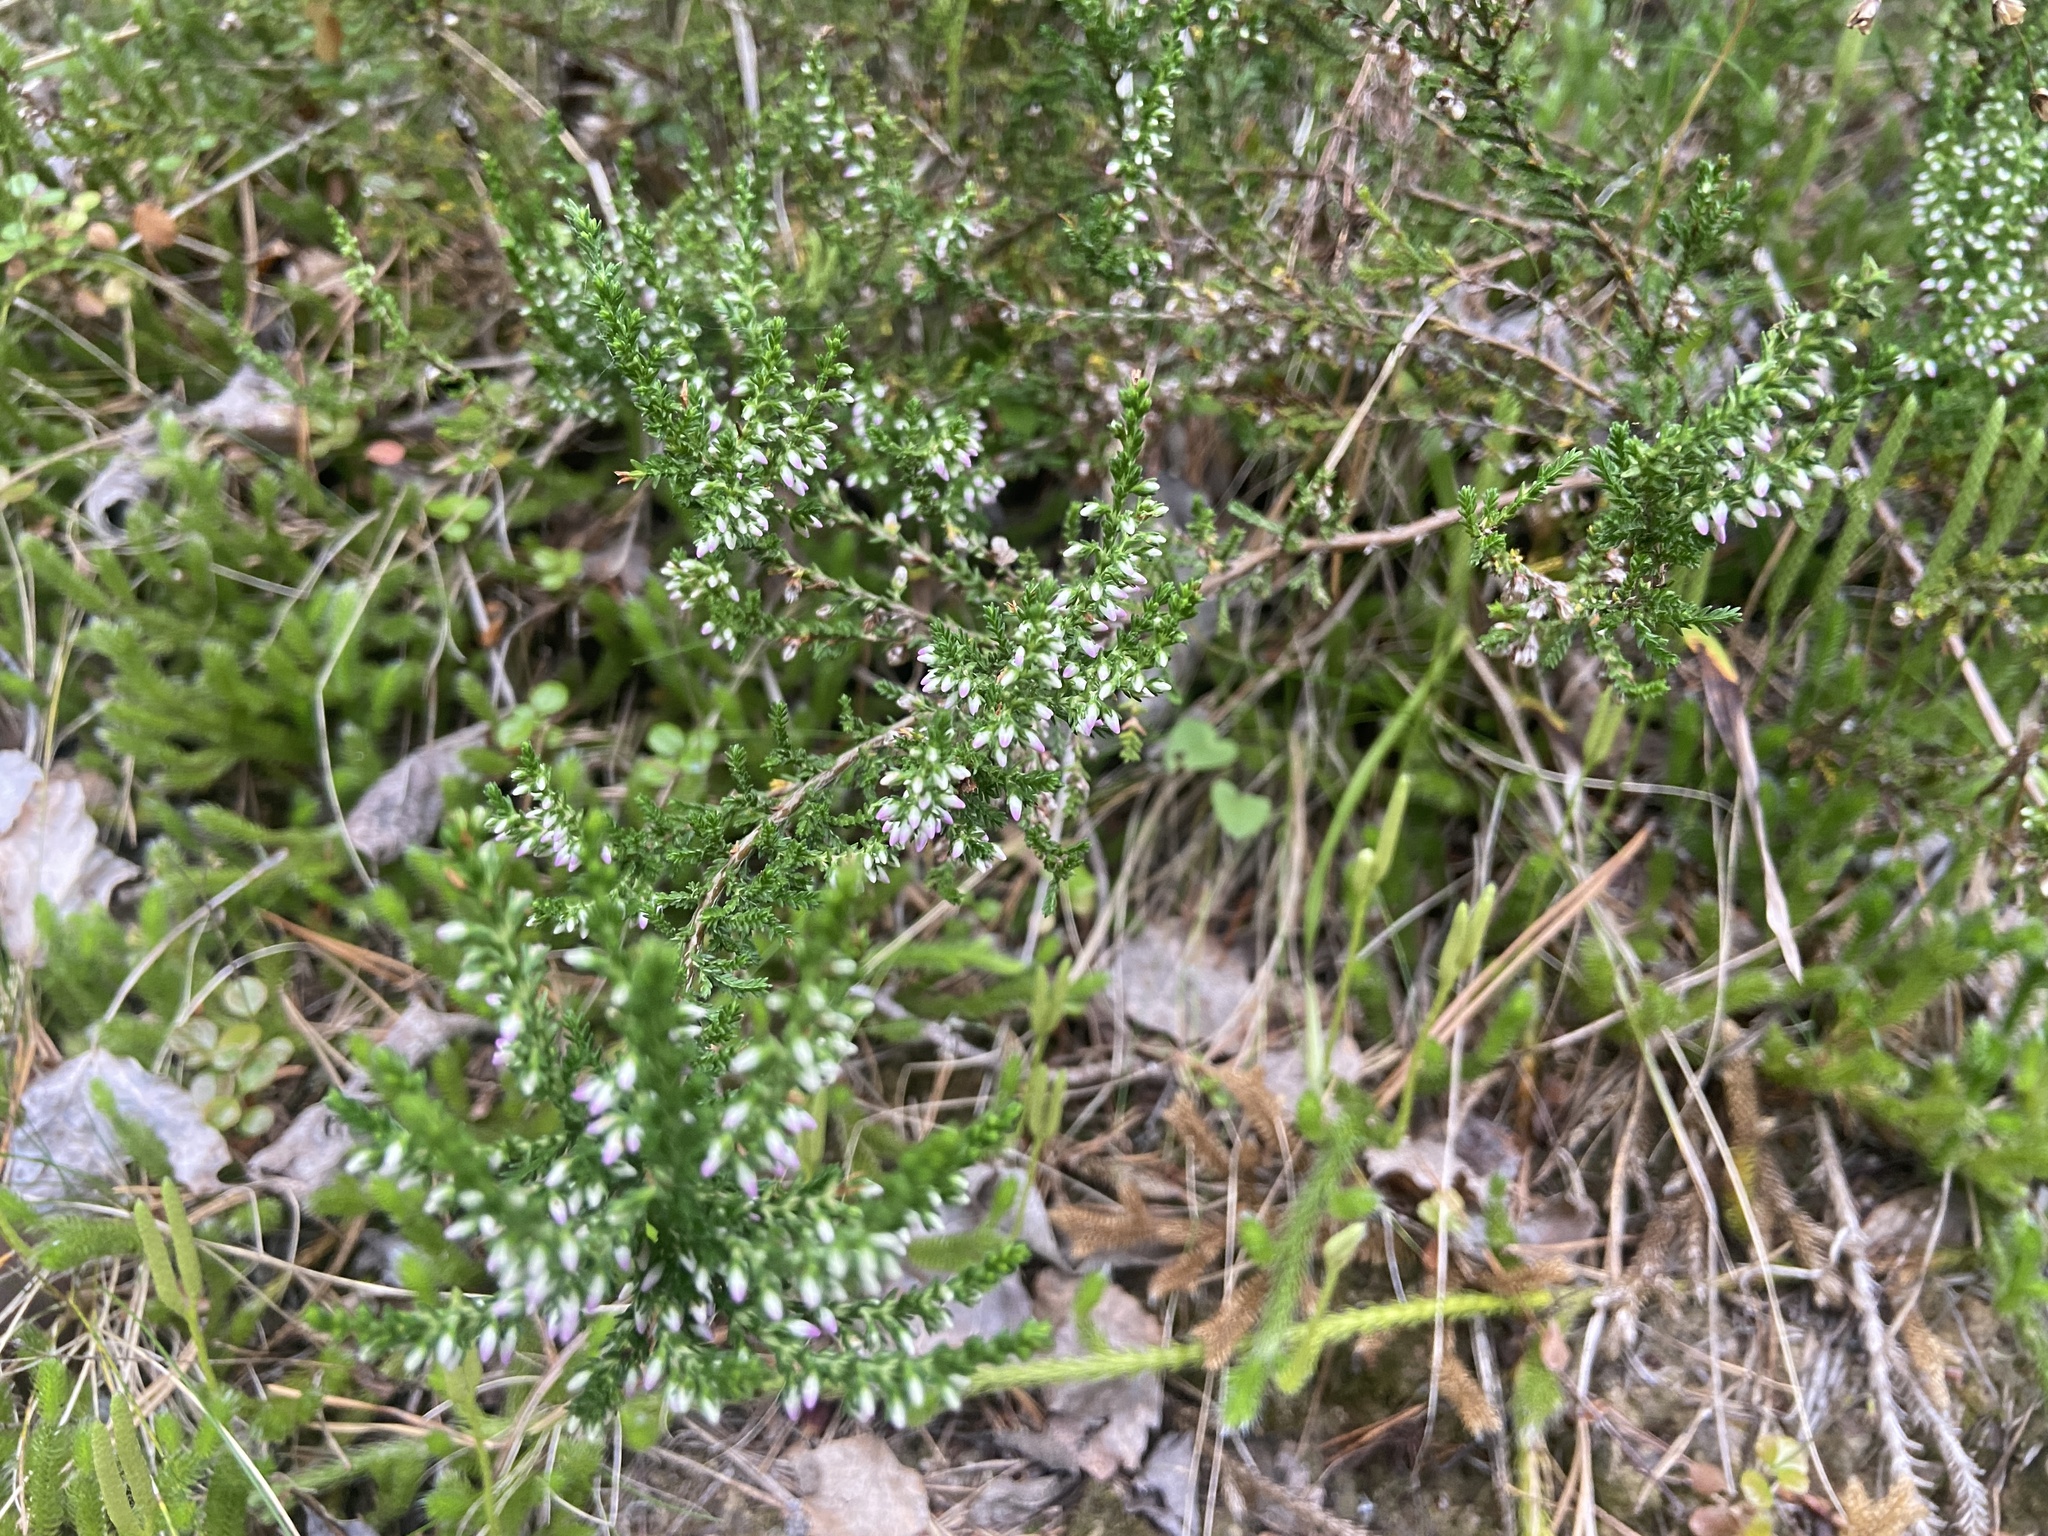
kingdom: Plantae
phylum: Tracheophyta
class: Magnoliopsida
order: Ericales
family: Ericaceae
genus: Calluna
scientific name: Calluna vulgaris
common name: Heather
